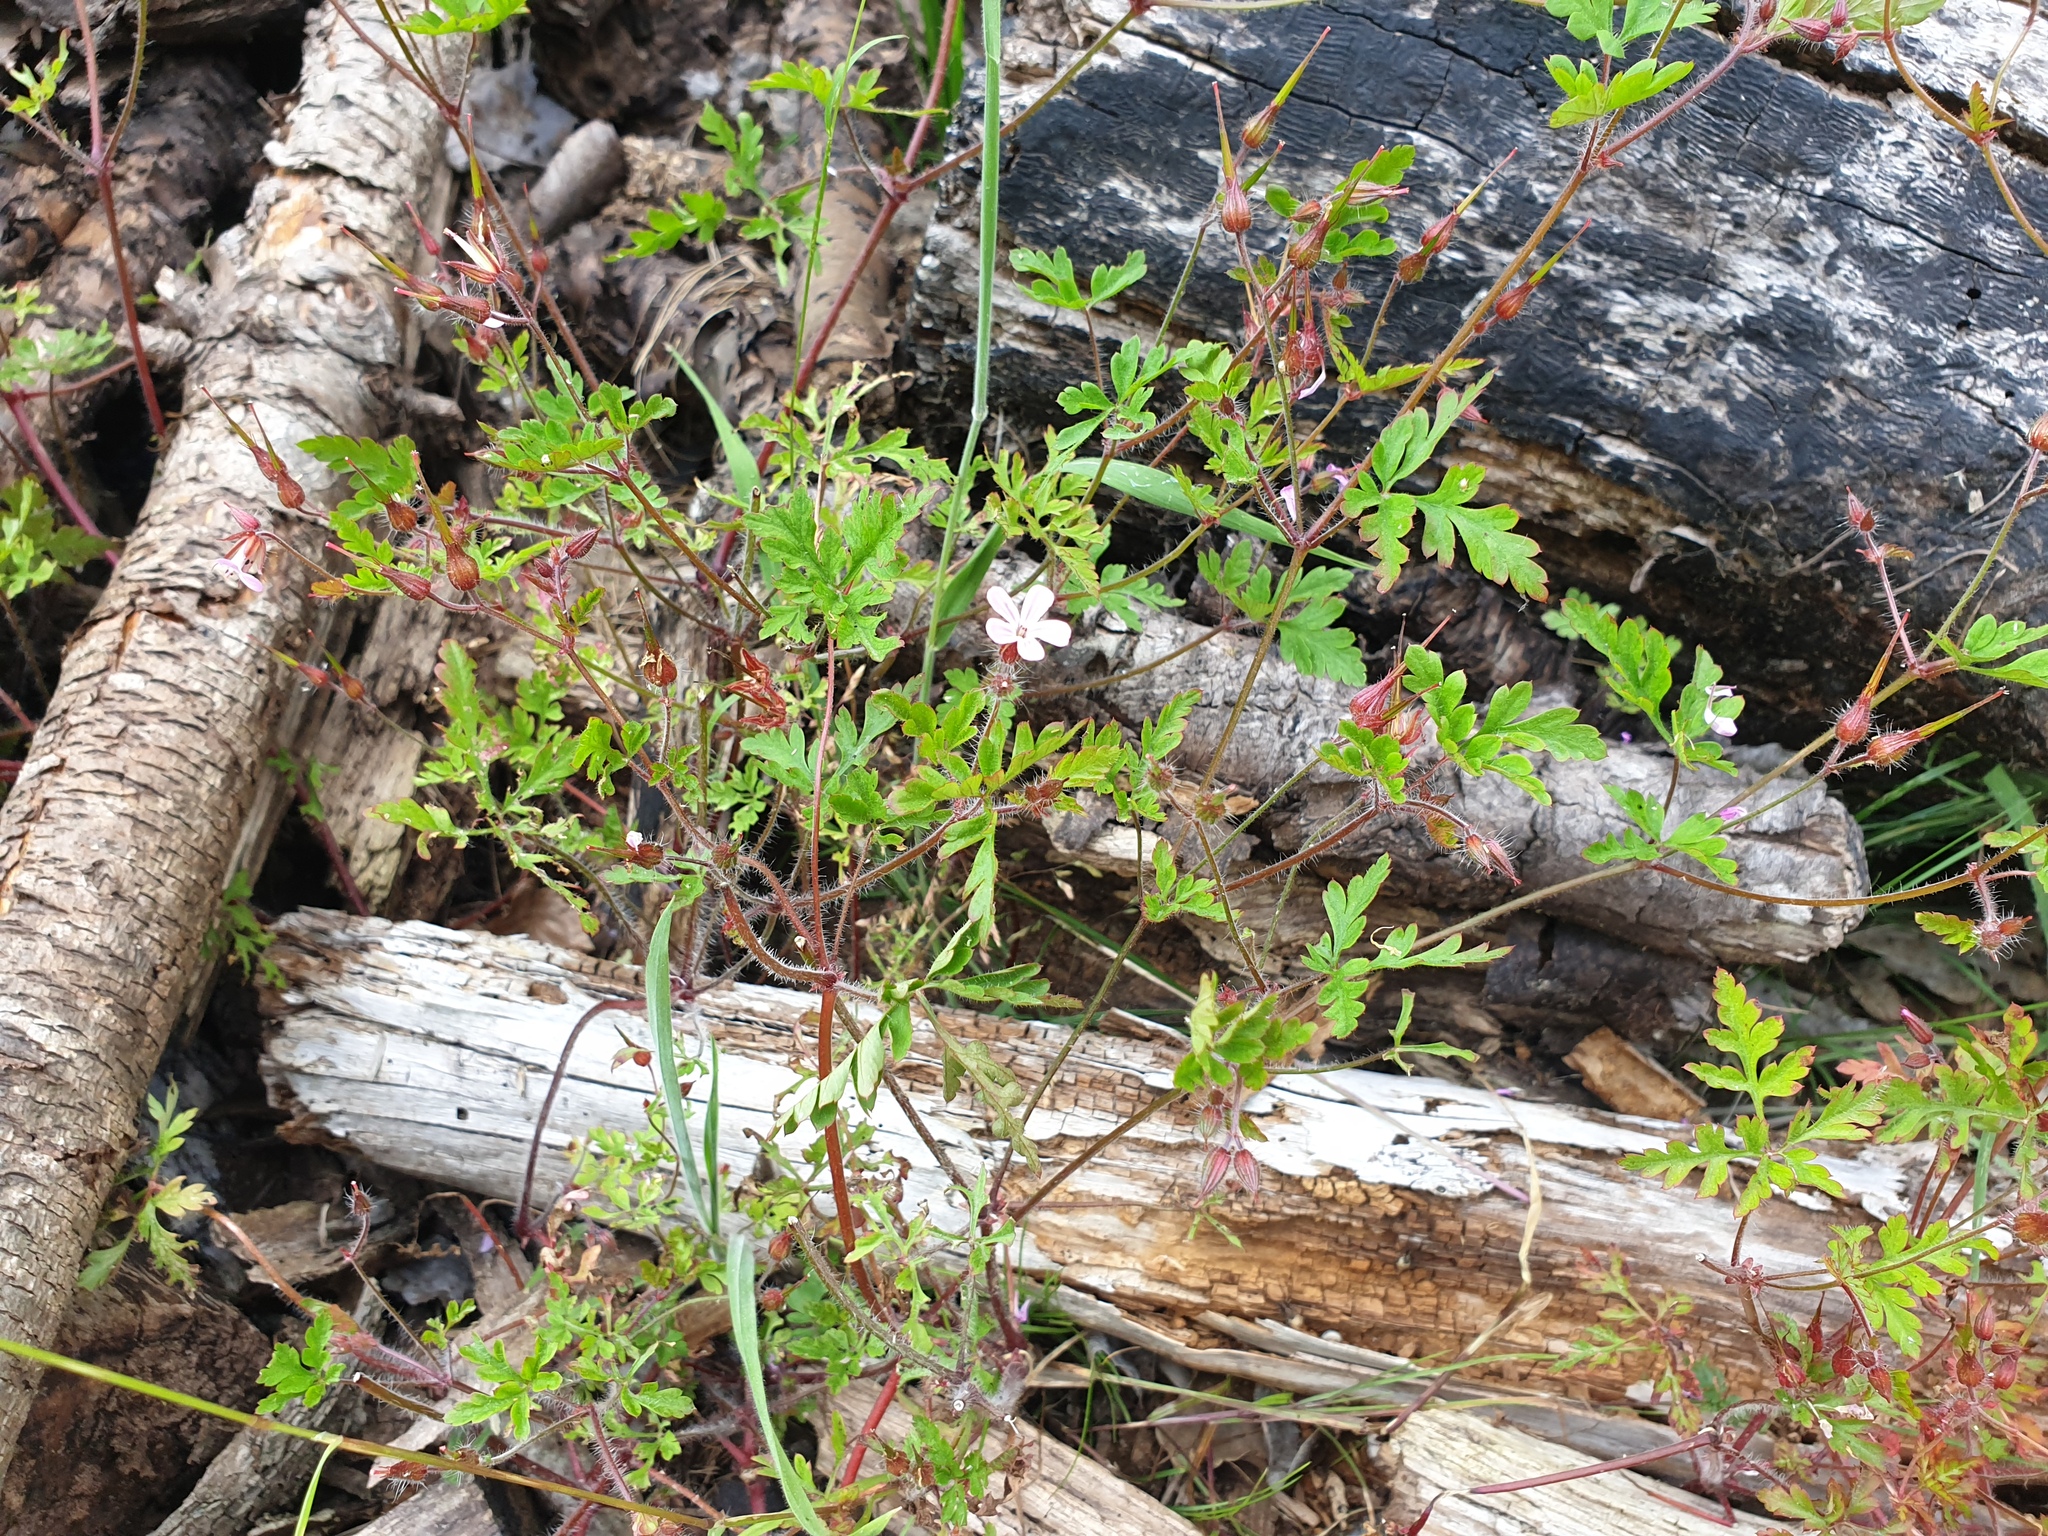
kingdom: Plantae
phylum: Tracheophyta
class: Magnoliopsida
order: Geraniales
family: Geraniaceae
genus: Geranium
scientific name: Geranium robertianum
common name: Herb-robert
